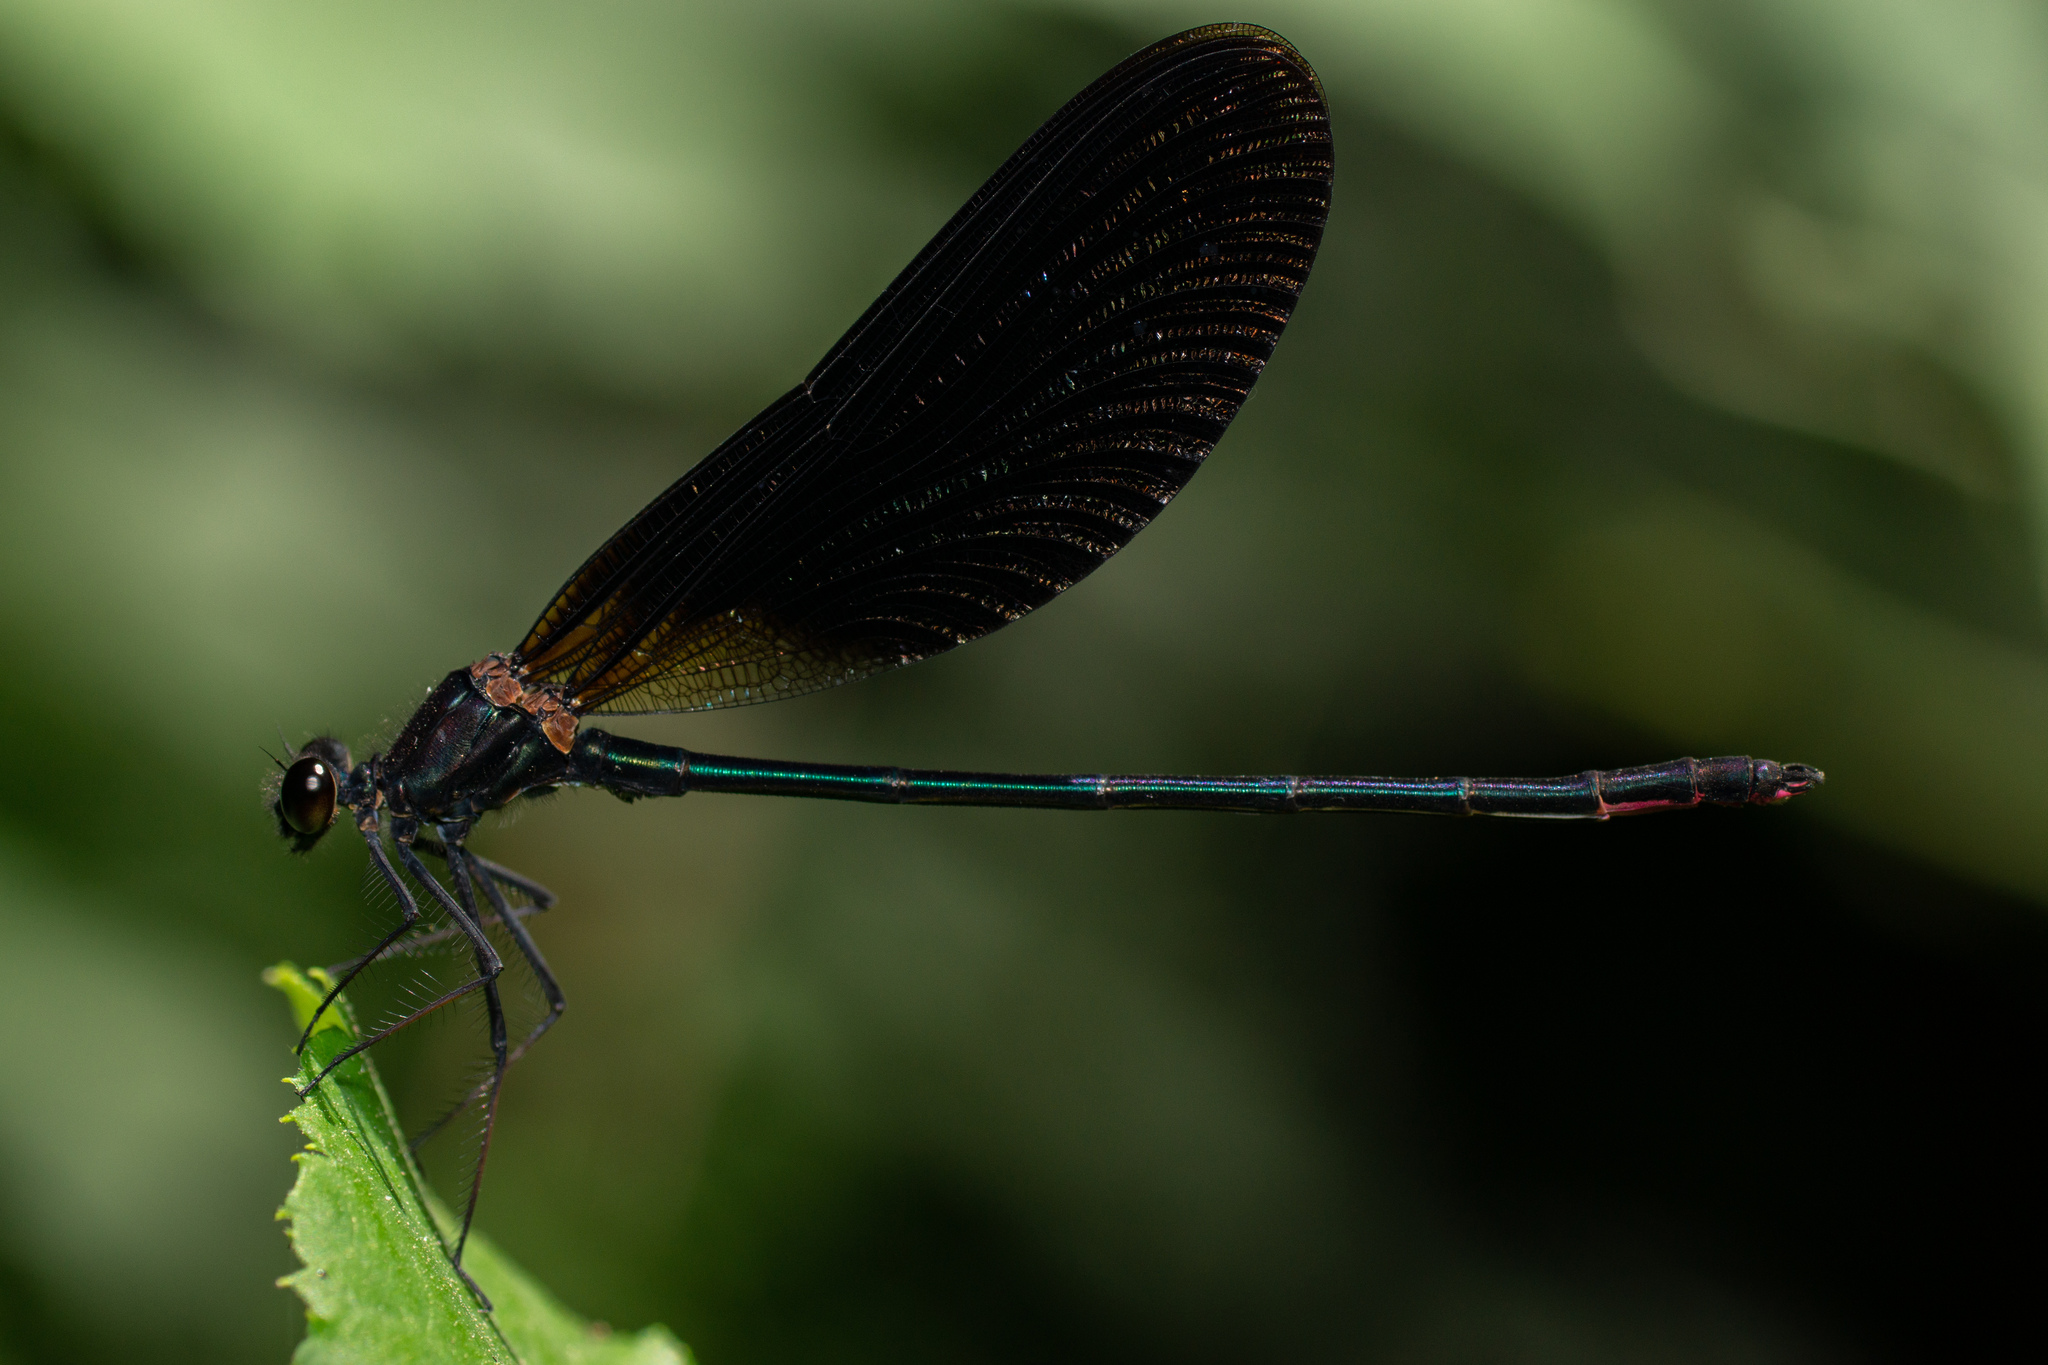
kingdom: Animalia
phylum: Arthropoda
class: Insecta
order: Odonata
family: Calopterygidae
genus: Calopteryx
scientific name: Calopteryx haemorrhoidalis
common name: Copper demoiselle
